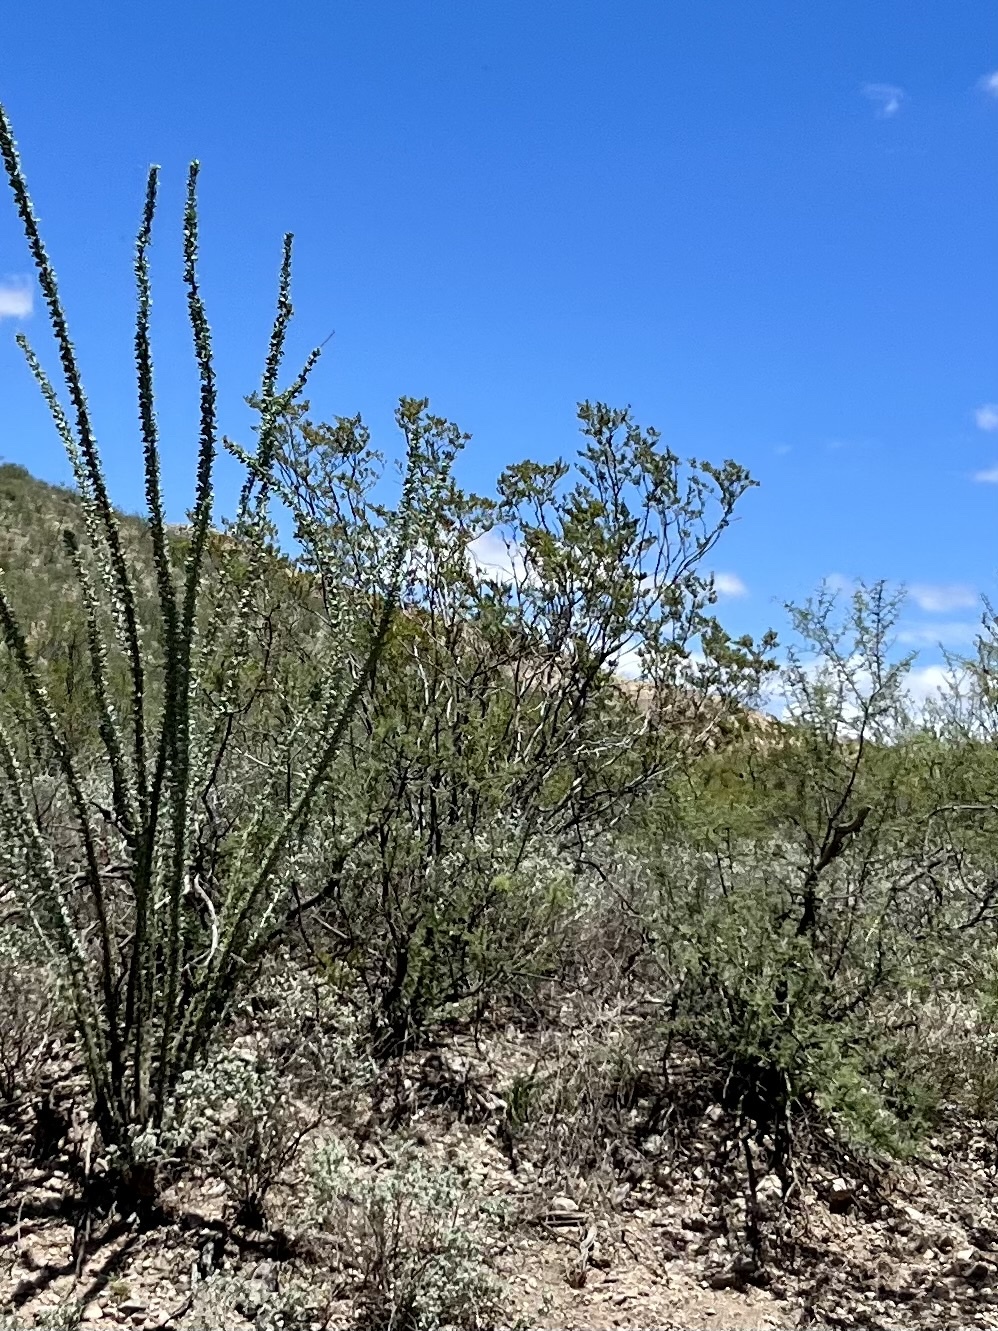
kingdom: Plantae
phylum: Tracheophyta
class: Magnoliopsida
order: Zygophyllales
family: Zygophyllaceae
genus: Larrea
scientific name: Larrea tridentata
